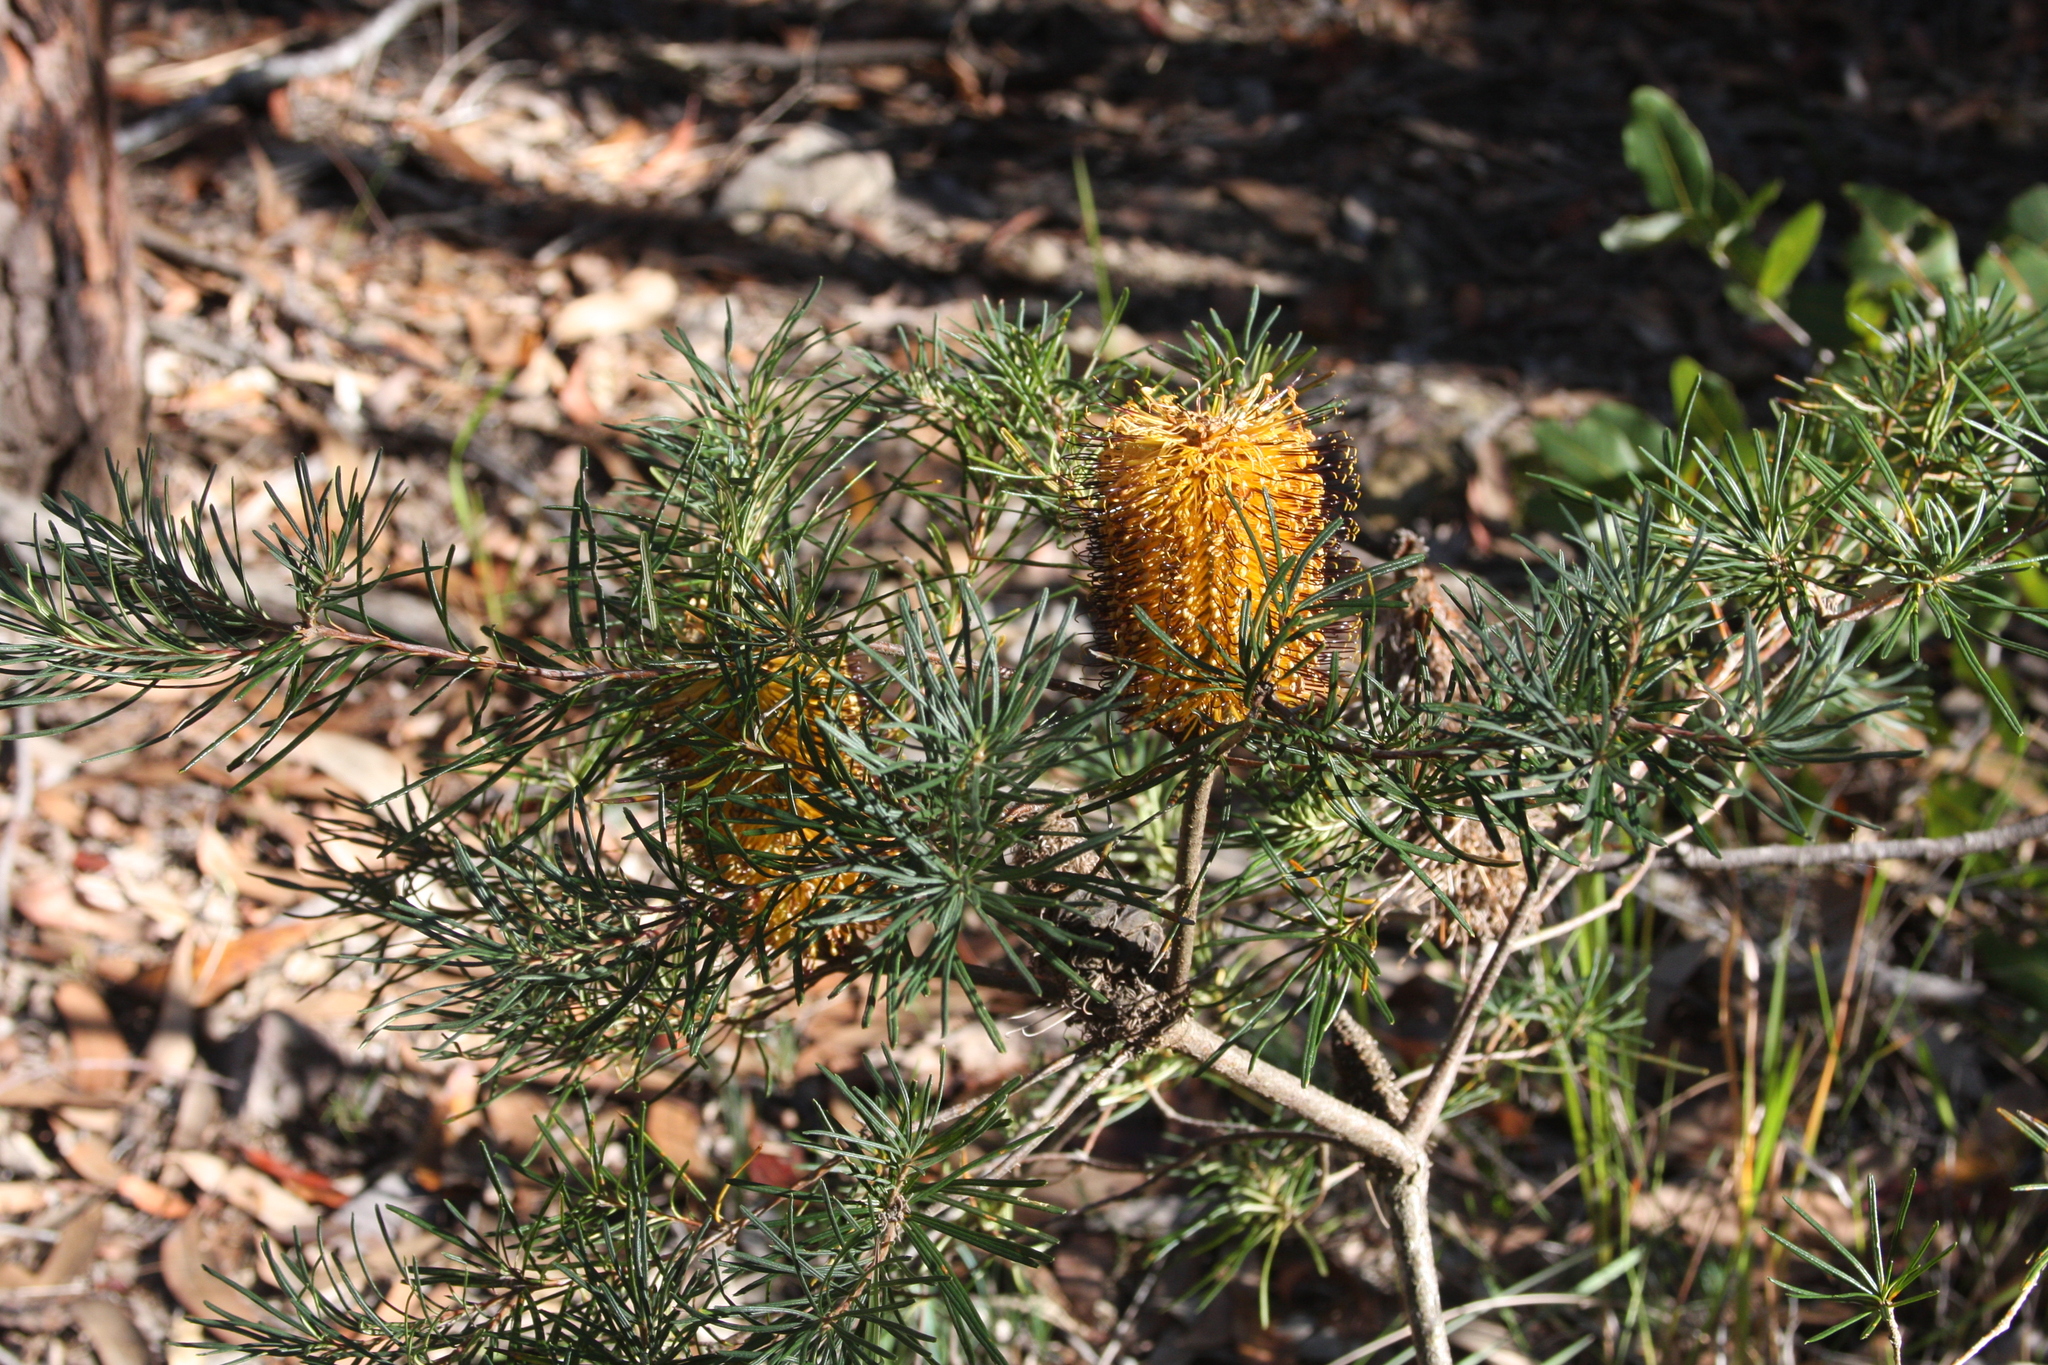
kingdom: Plantae
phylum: Tracheophyta
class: Magnoliopsida
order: Proteales
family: Proteaceae
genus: Banksia
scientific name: Banksia spinulosa
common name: Hairpin banksia
